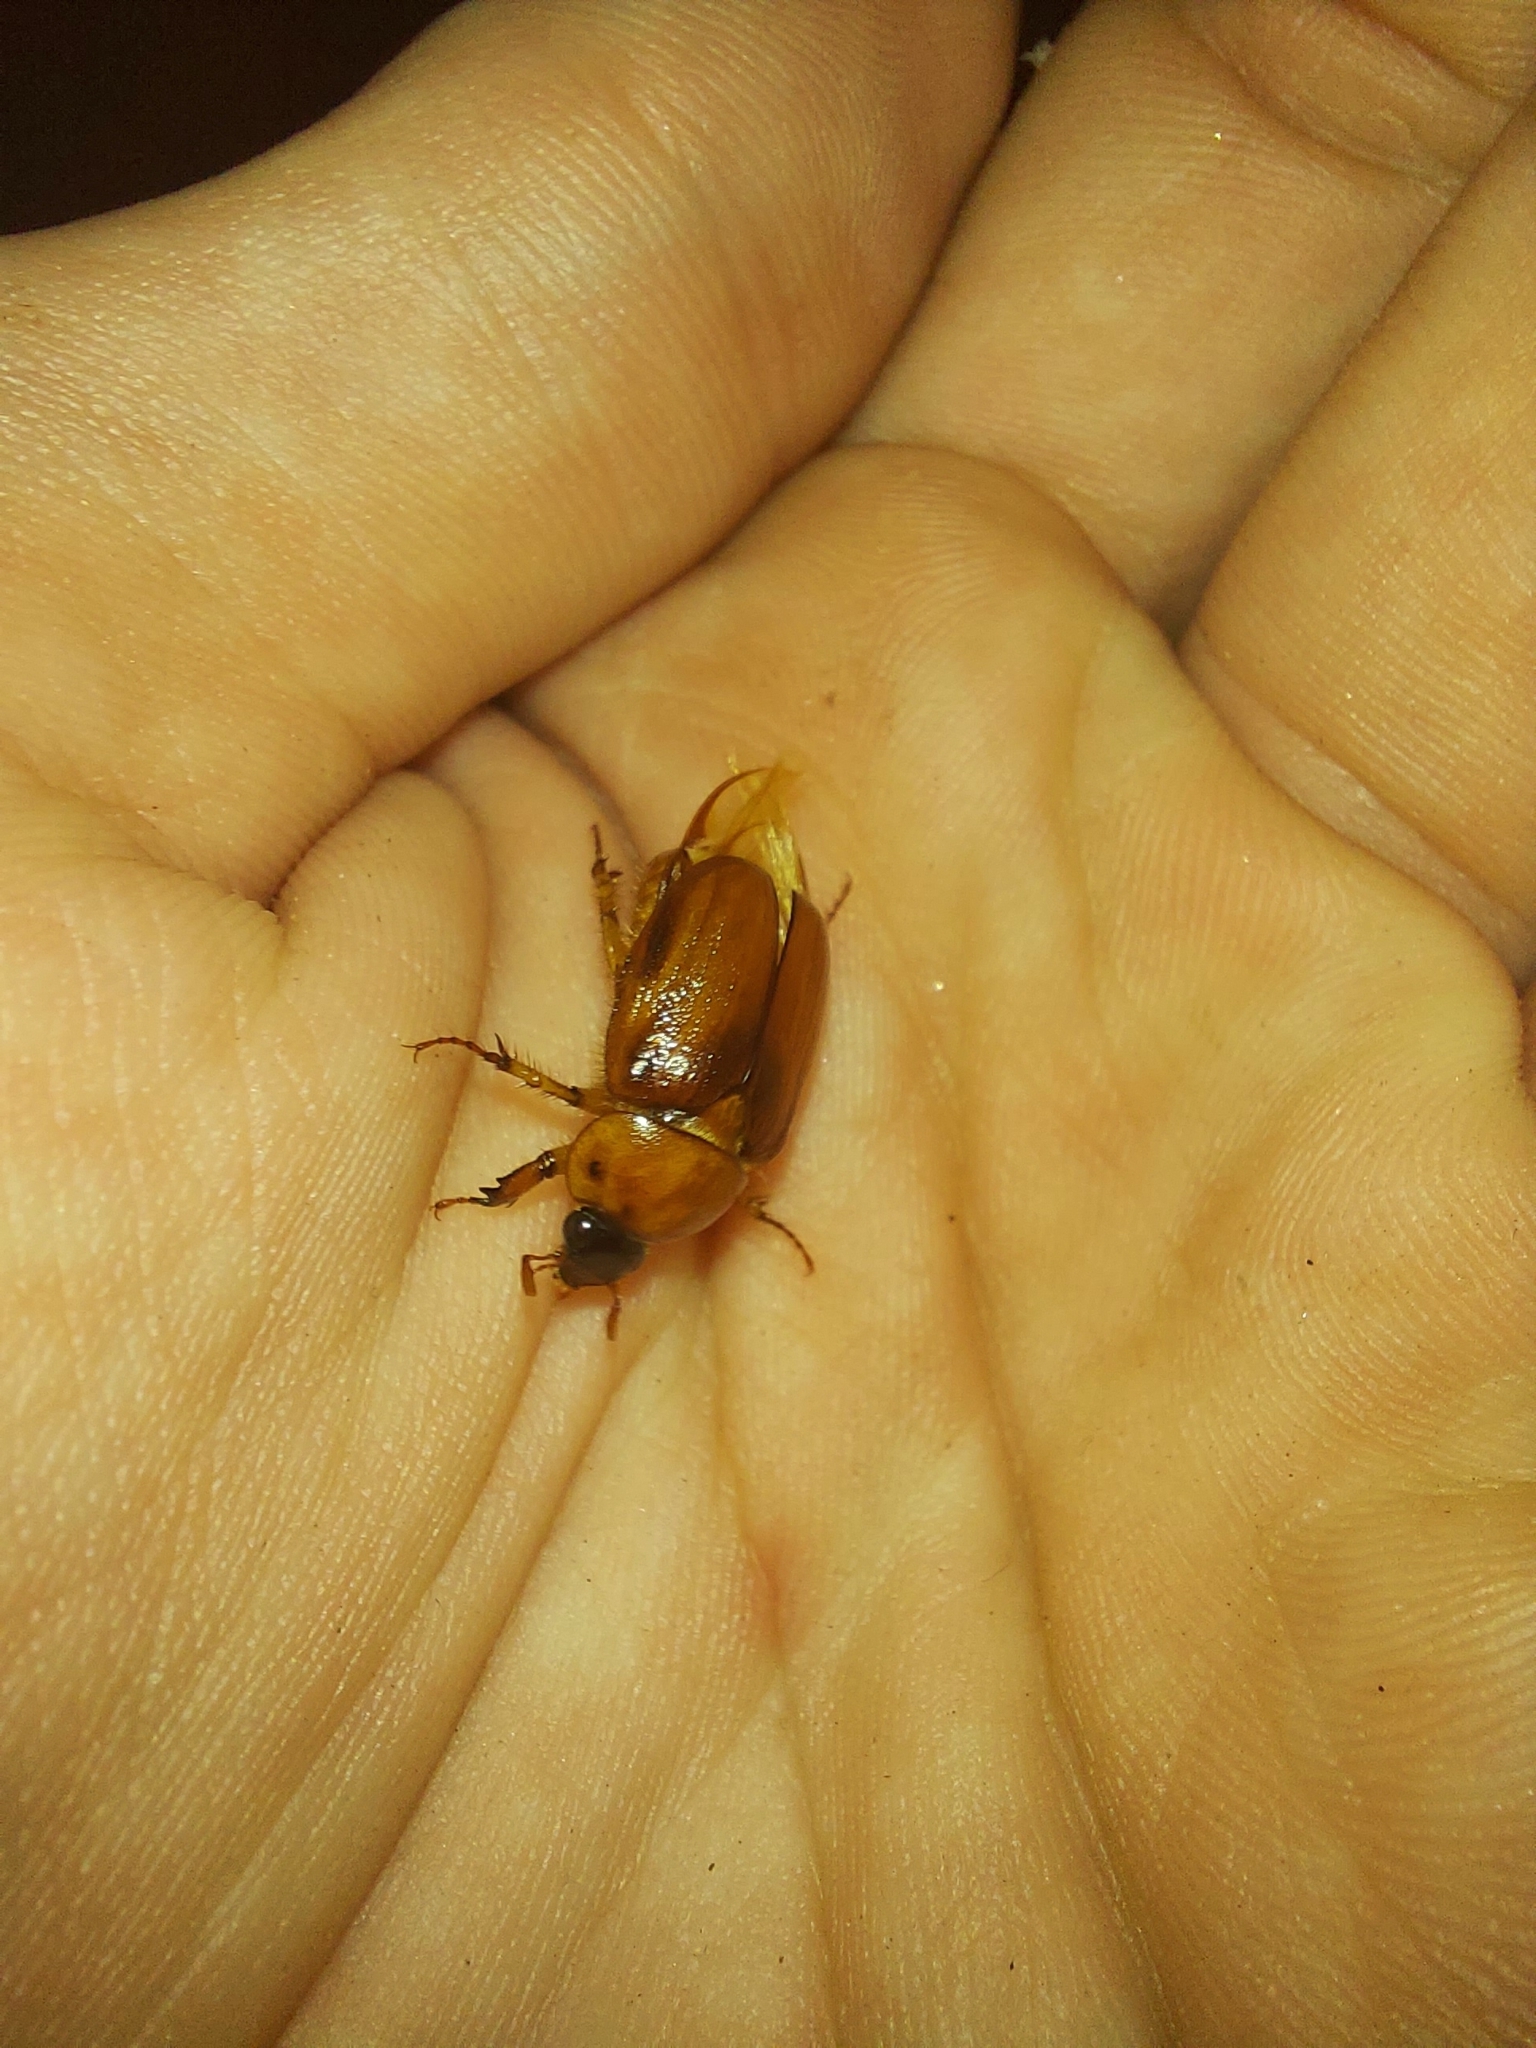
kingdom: Animalia
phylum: Arthropoda
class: Insecta
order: Coleoptera
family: Scarabaeidae
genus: Cyclocephala
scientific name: Cyclocephala lurida
